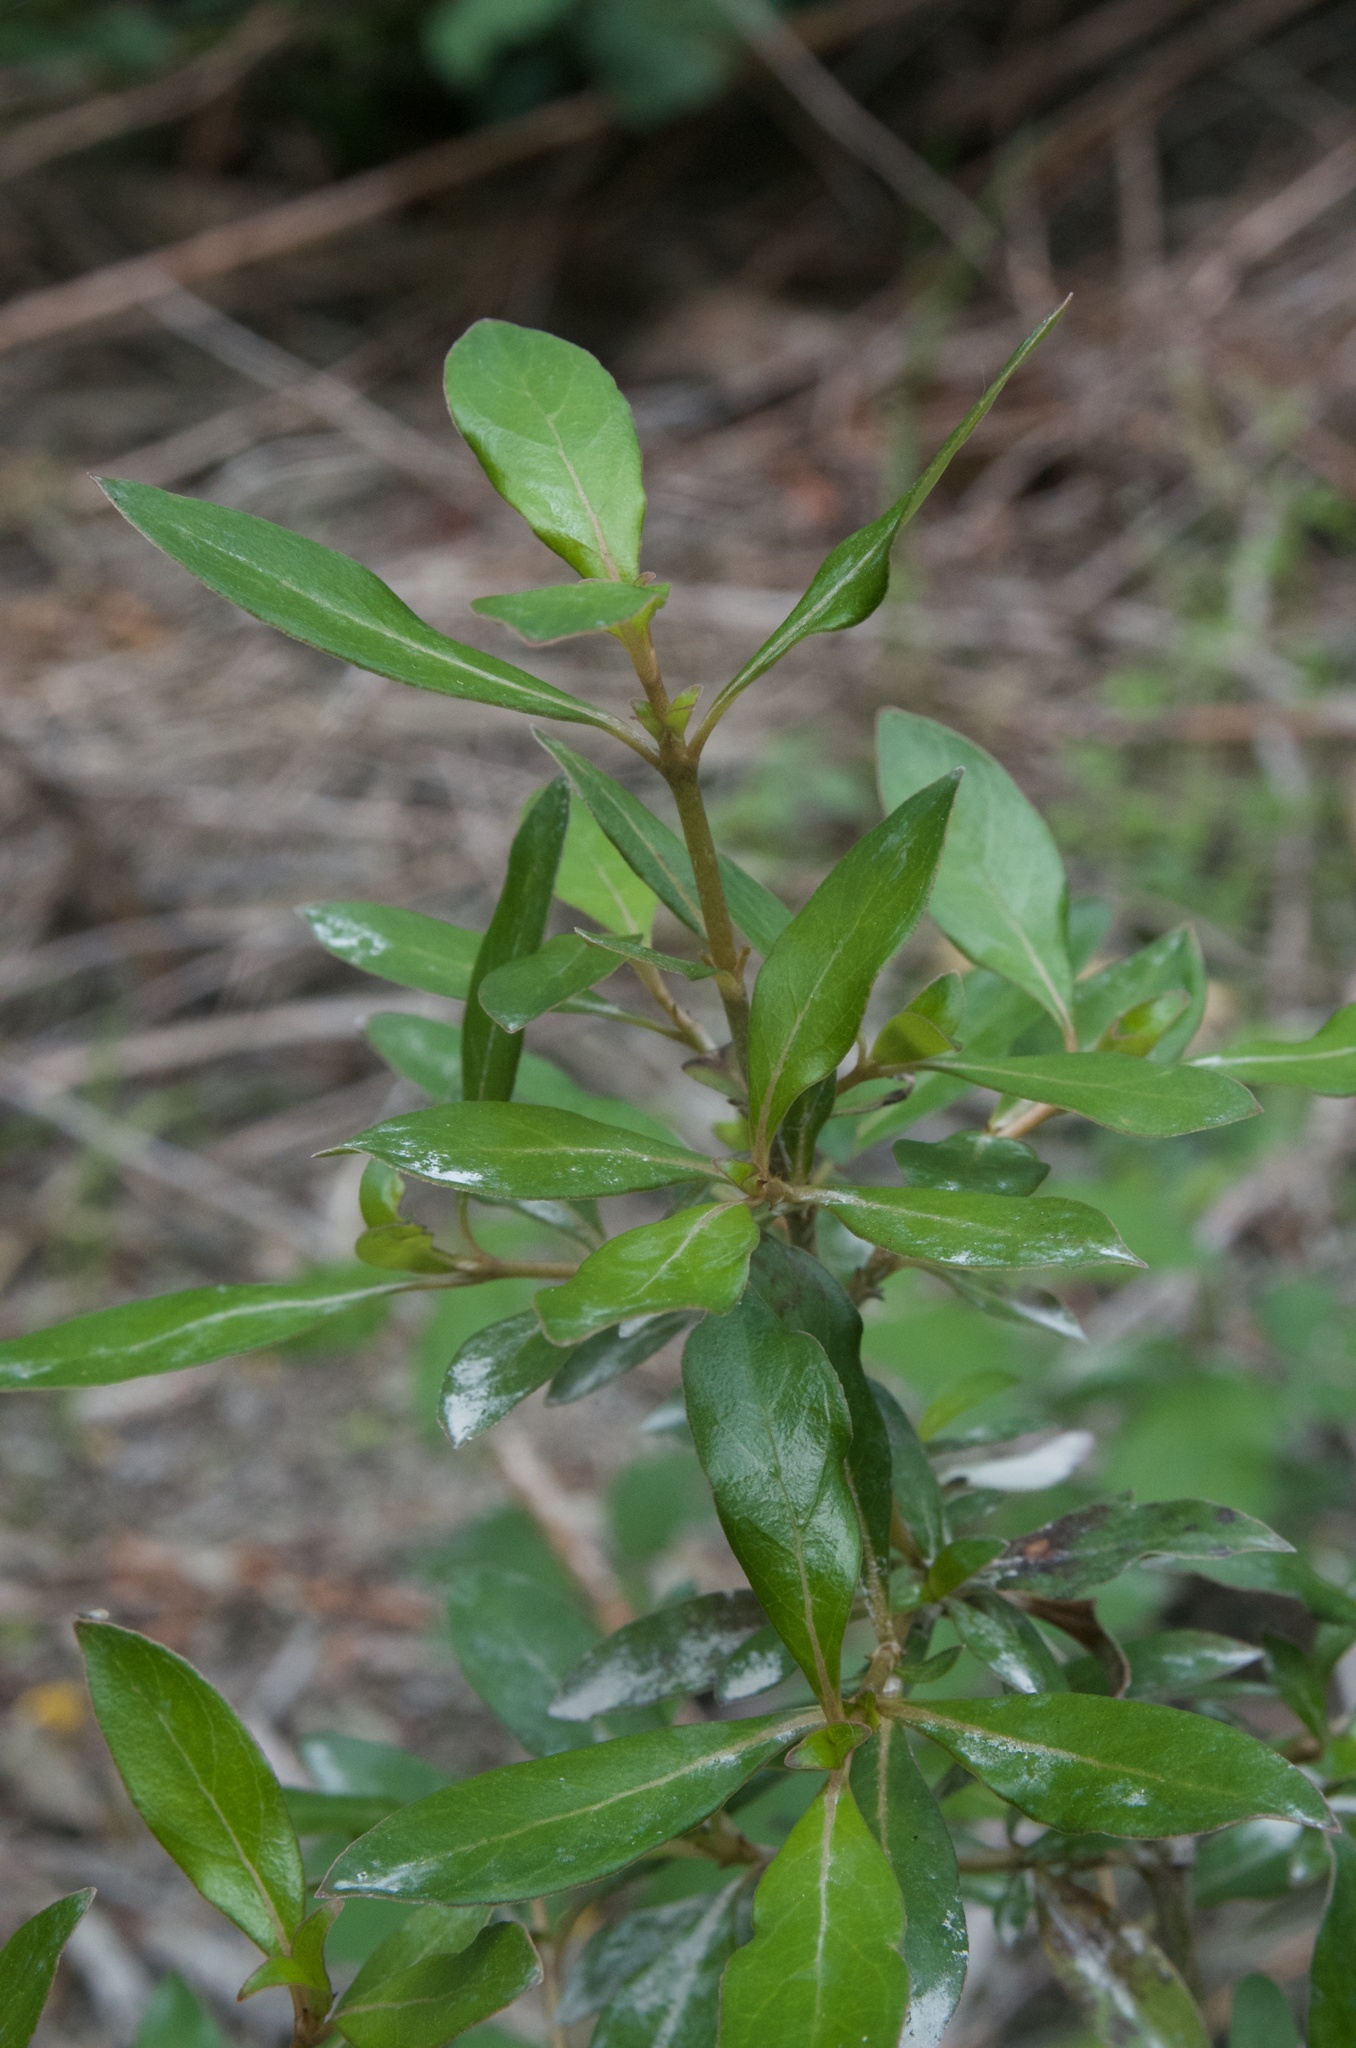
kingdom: Plantae
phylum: Tracheophyta
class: Magnoliopsida
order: Gentianales
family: Rubiaceae
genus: Coprosma
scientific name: Coprosma cunninghamii
